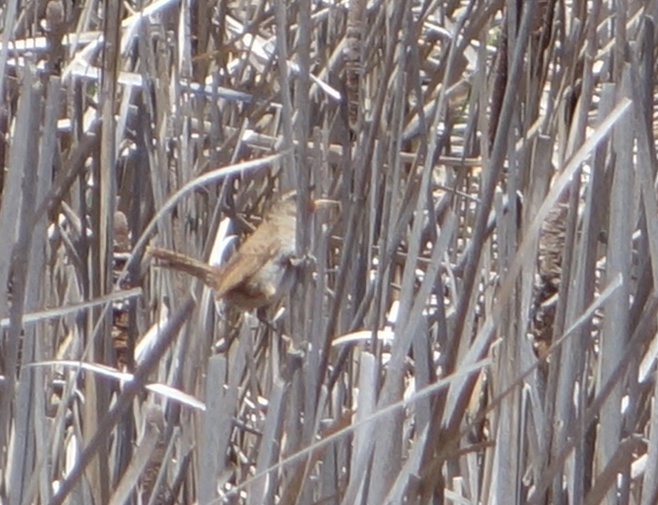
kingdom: Animalia
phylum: Chordata
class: Aves
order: Passeriformes
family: Troglodytidae
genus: Cistothorus
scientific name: Cistothorus palustris
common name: Marsh wren
